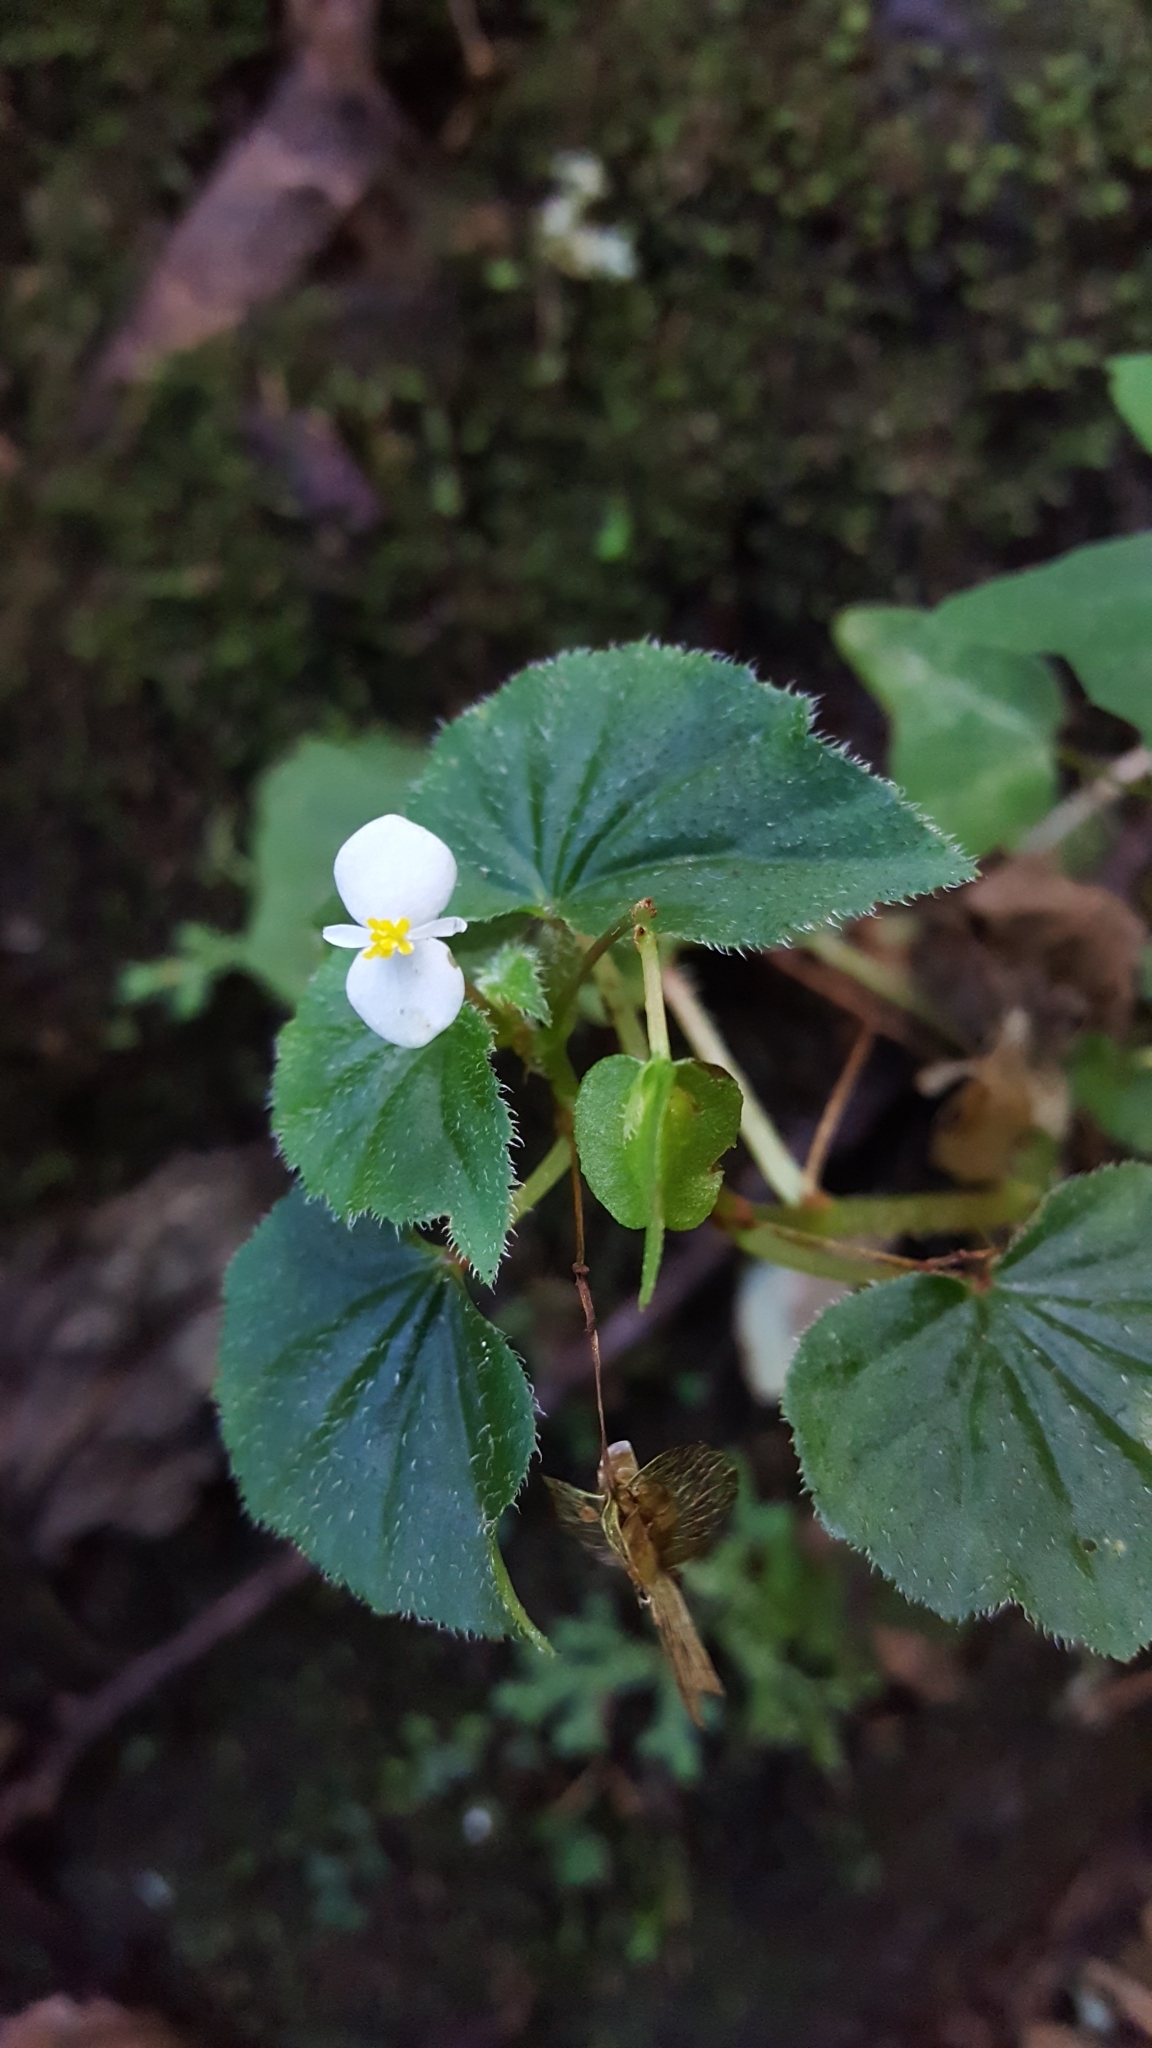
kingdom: Plantae
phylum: Tracheophyta
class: Magnoliopsida
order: Cucurbitales
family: Begoniaceae
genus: Begonia
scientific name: Begonia hirtella
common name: Brazilian begonia
